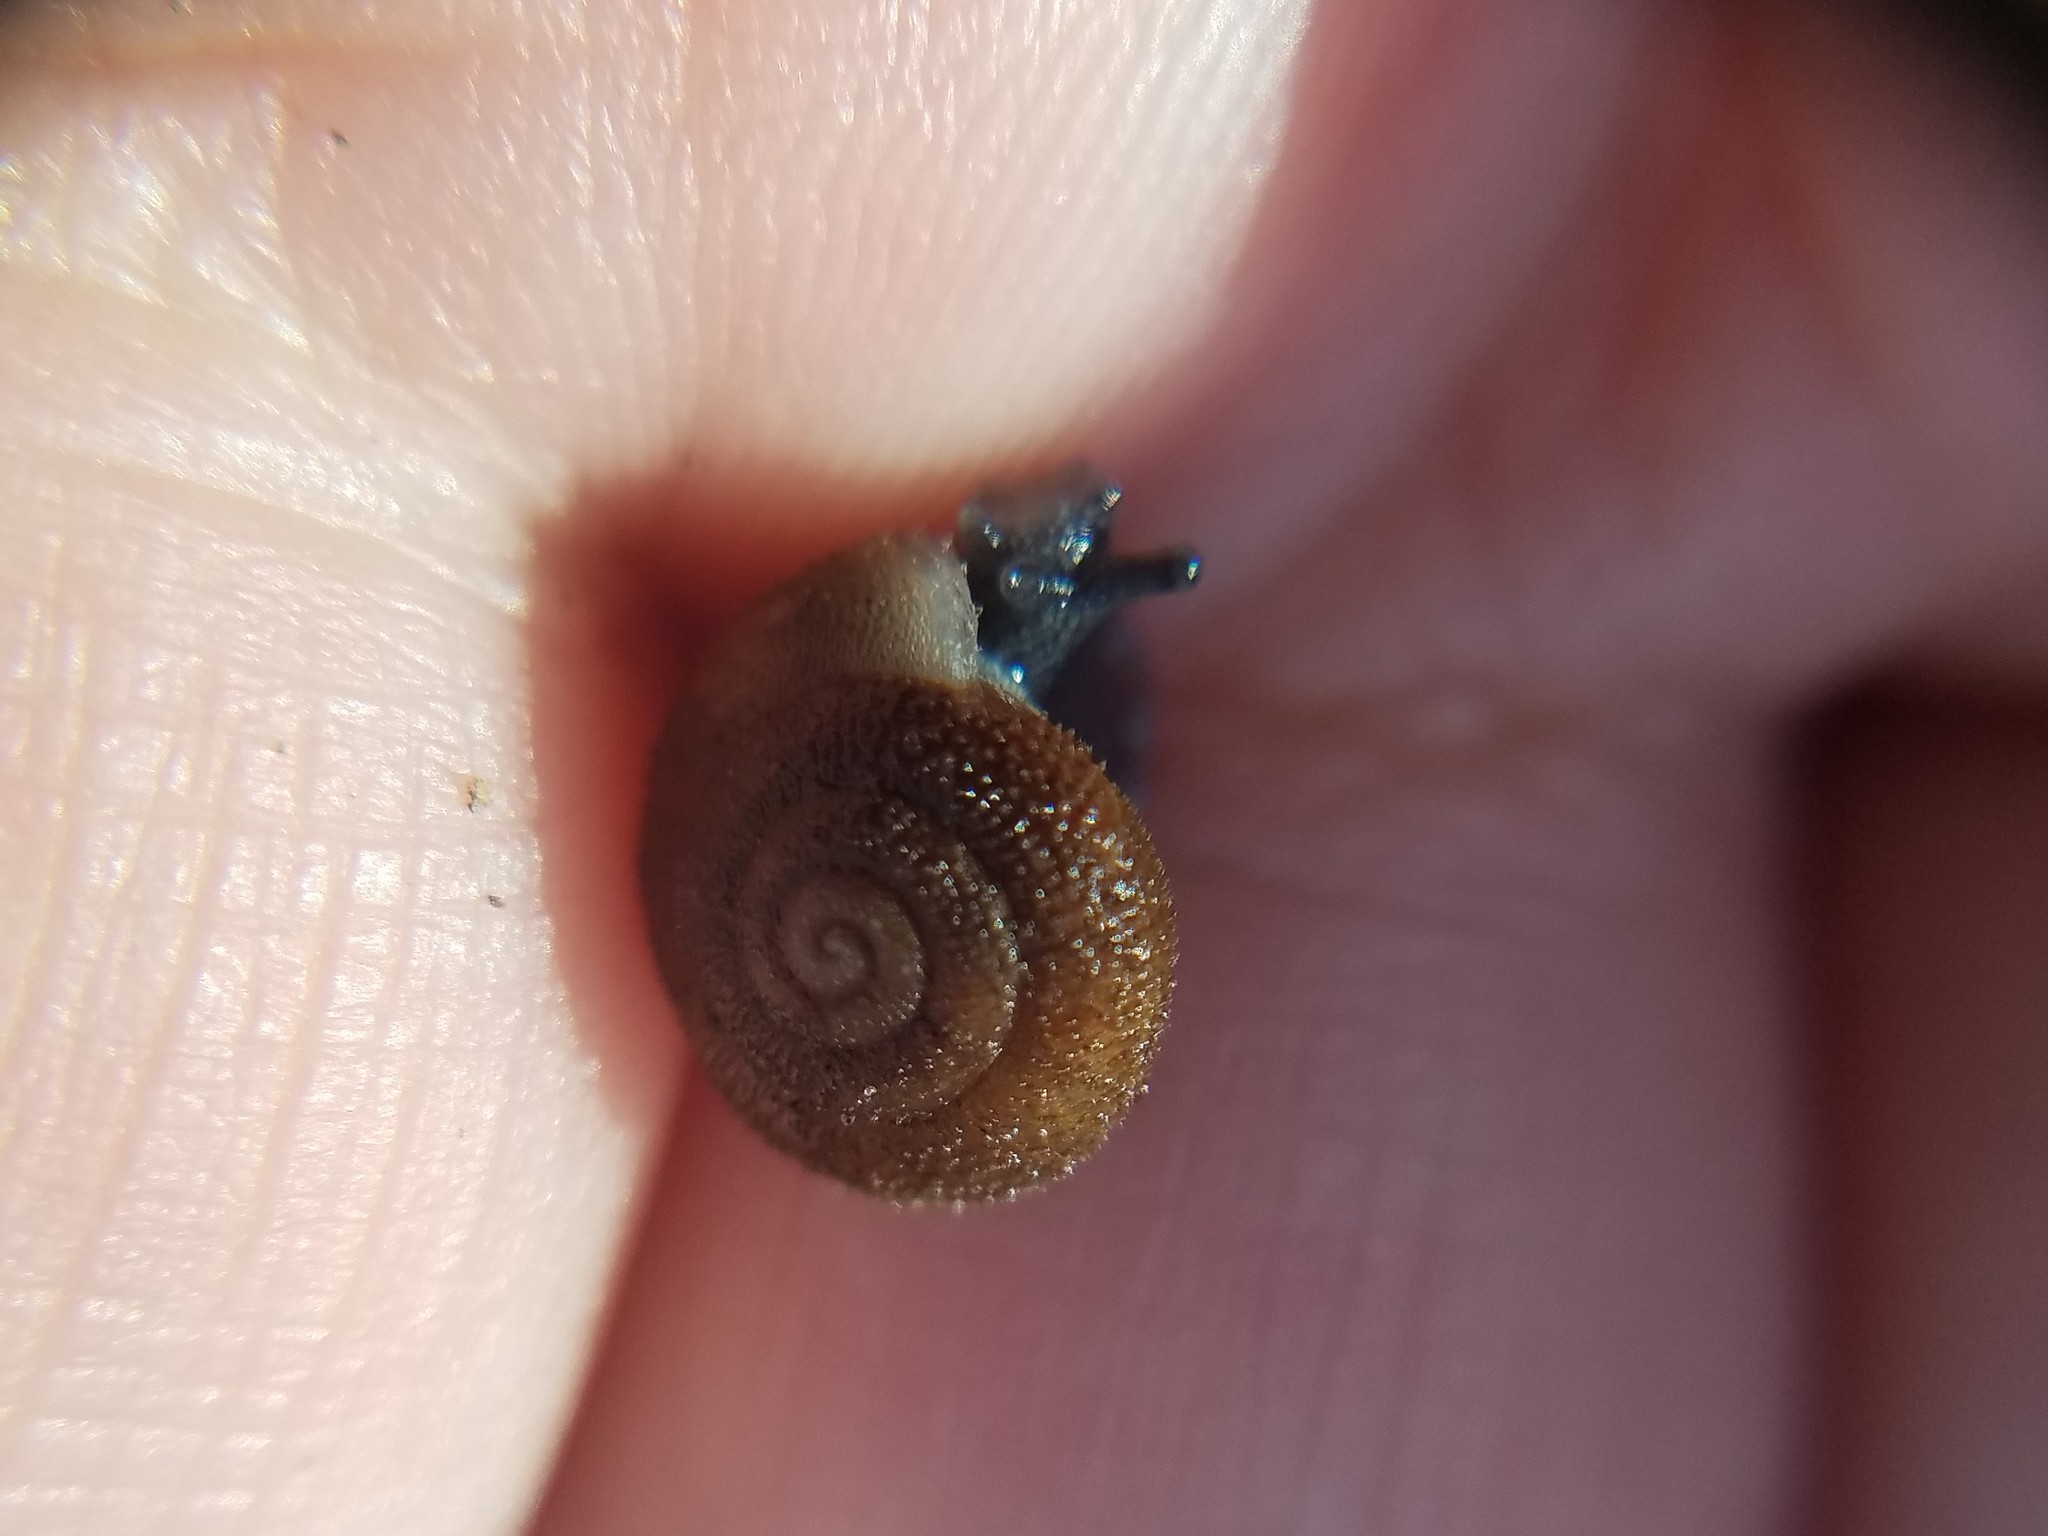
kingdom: Animalia
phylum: Mollusca
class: Gastropoda
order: Stylommatophora
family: Polygyridae
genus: Inflectarius
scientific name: Inflectarius inflectus
